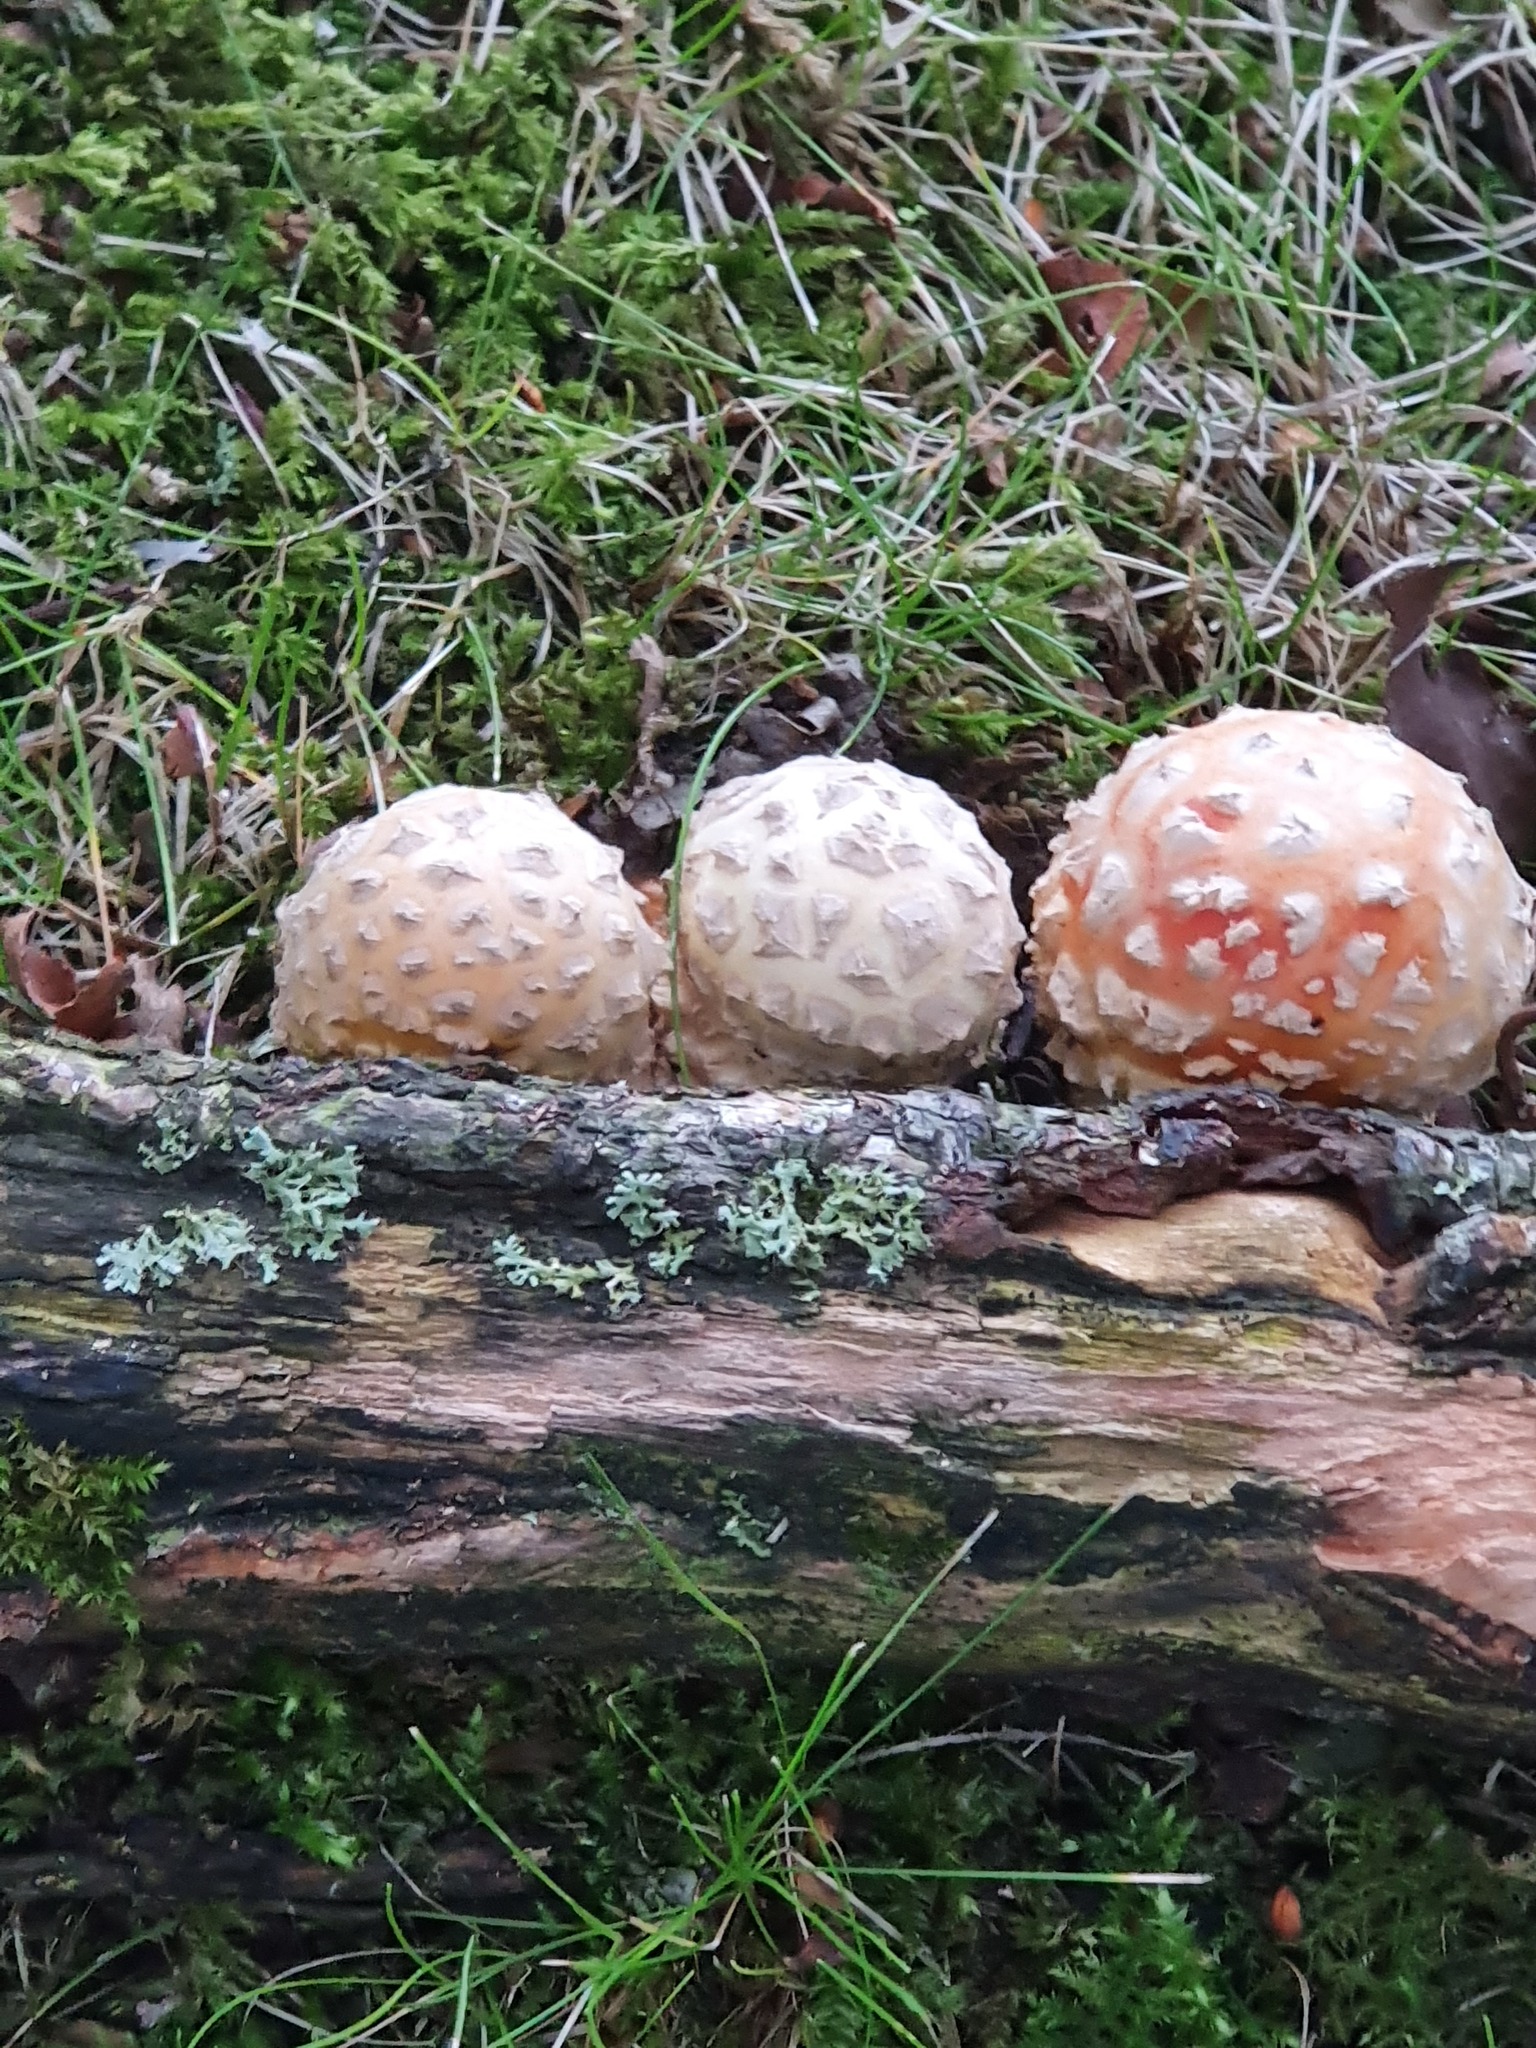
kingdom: Fungi
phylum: Basidiomycota
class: Agaricomycetes
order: Agaricales
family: Amanitaceae
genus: Amanita
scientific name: Amanita muscaria
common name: Fly agaric
